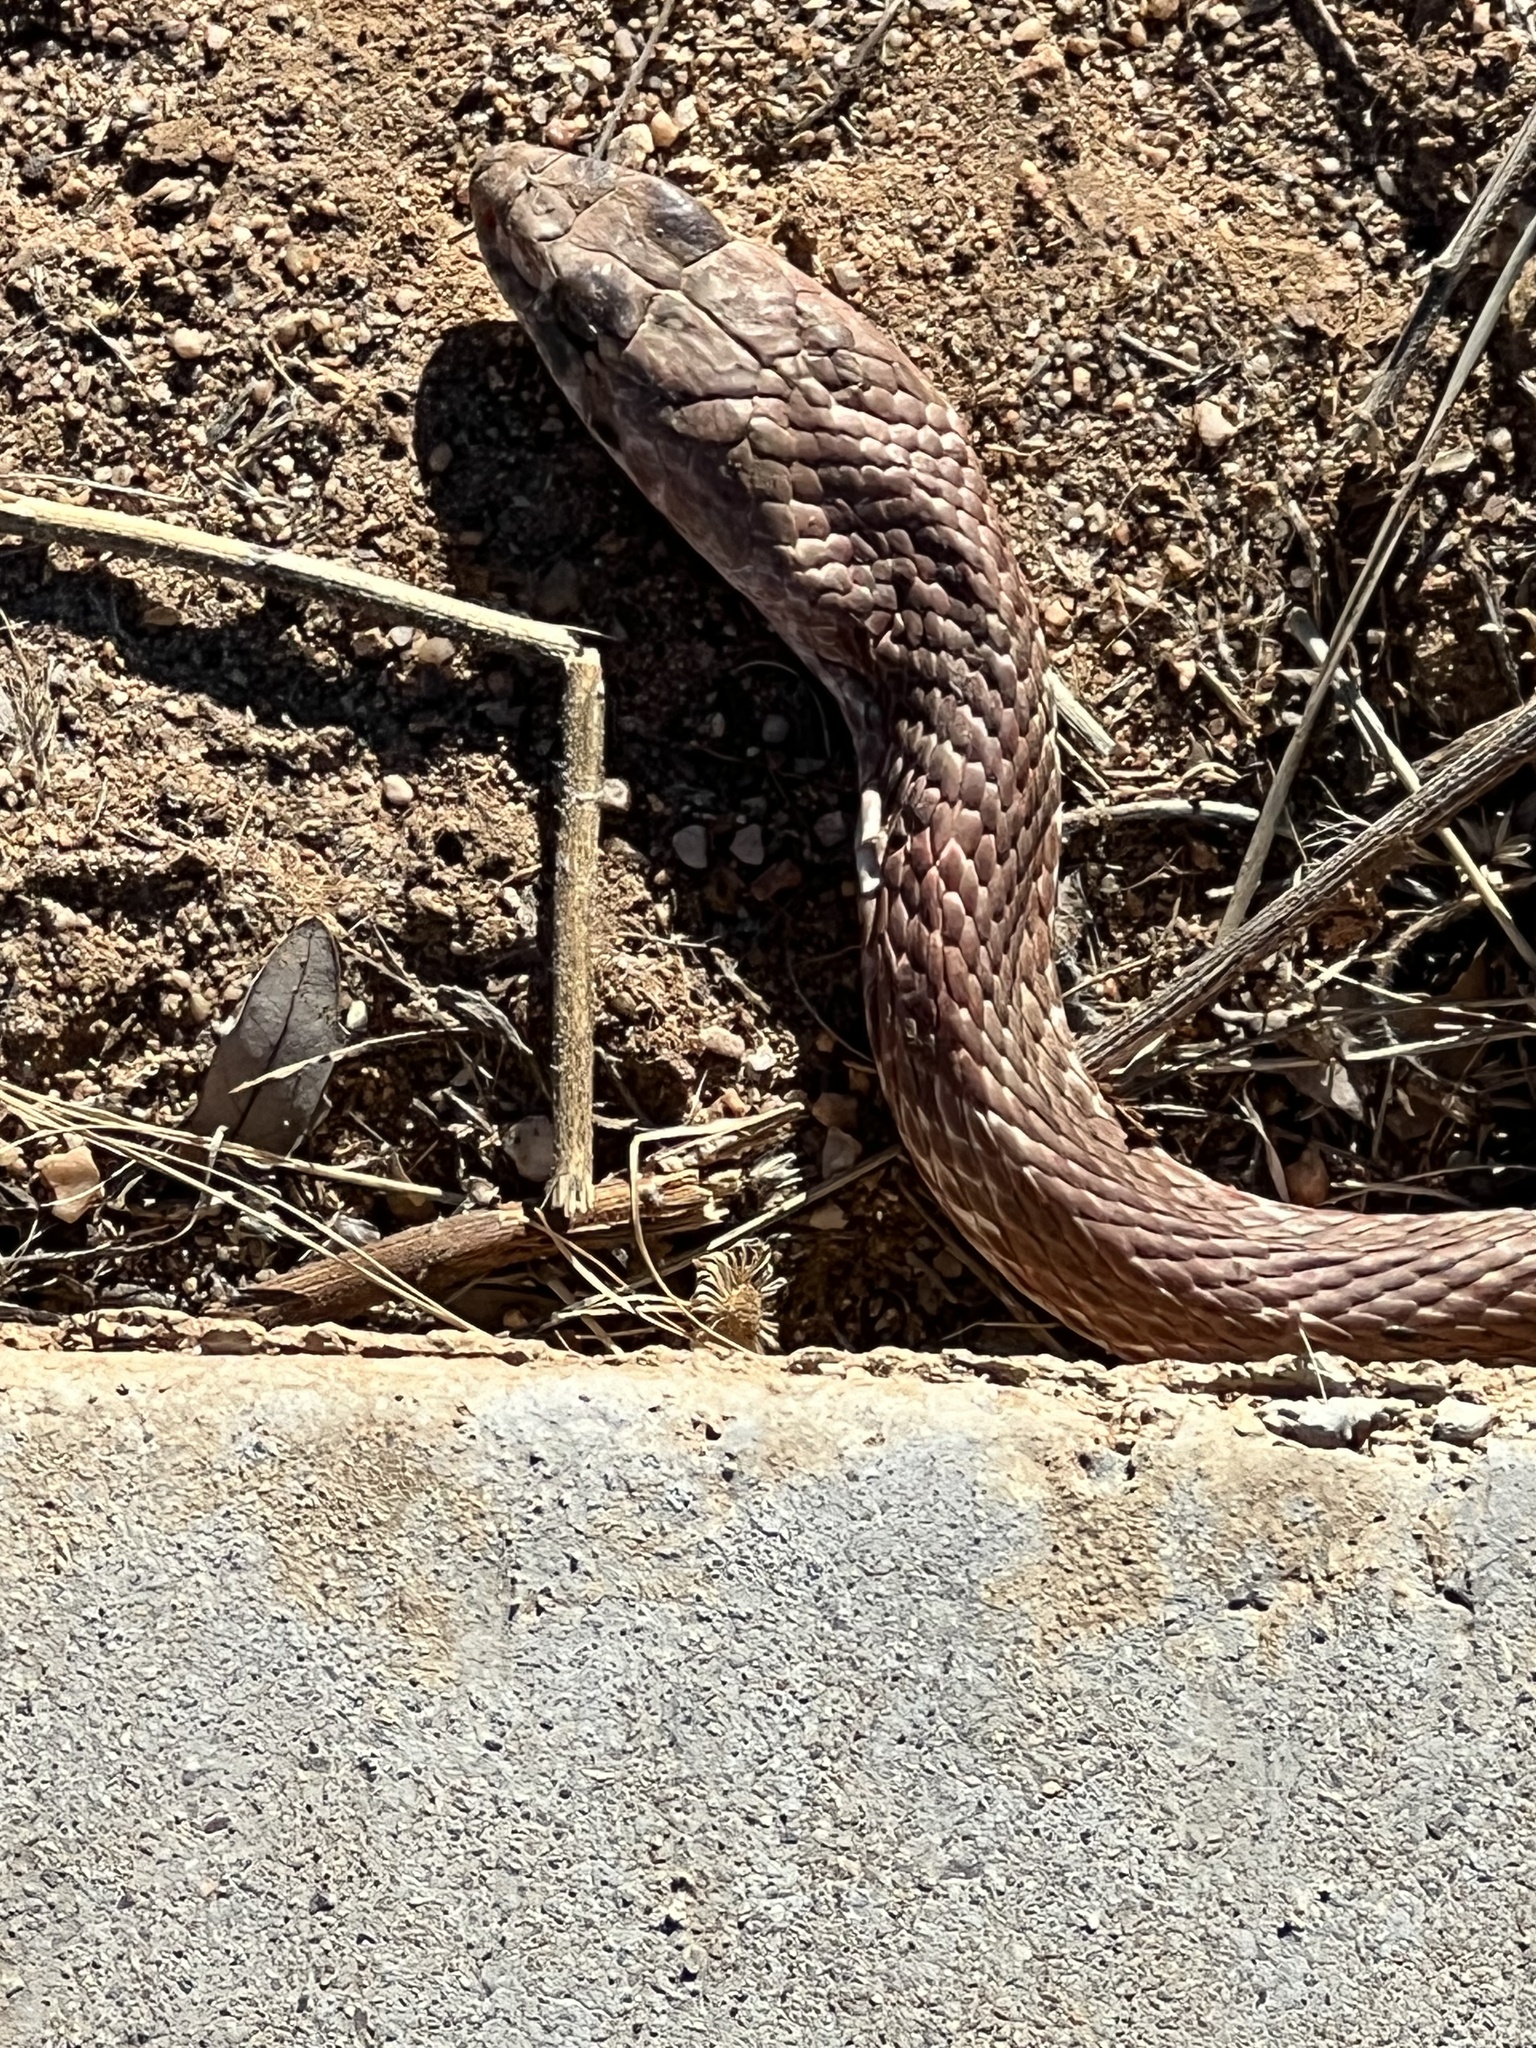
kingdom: Animalia
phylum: Chordata
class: Squamata
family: Colubridae
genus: Masticophis
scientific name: Masticophis flagellum
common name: Coachwhip
